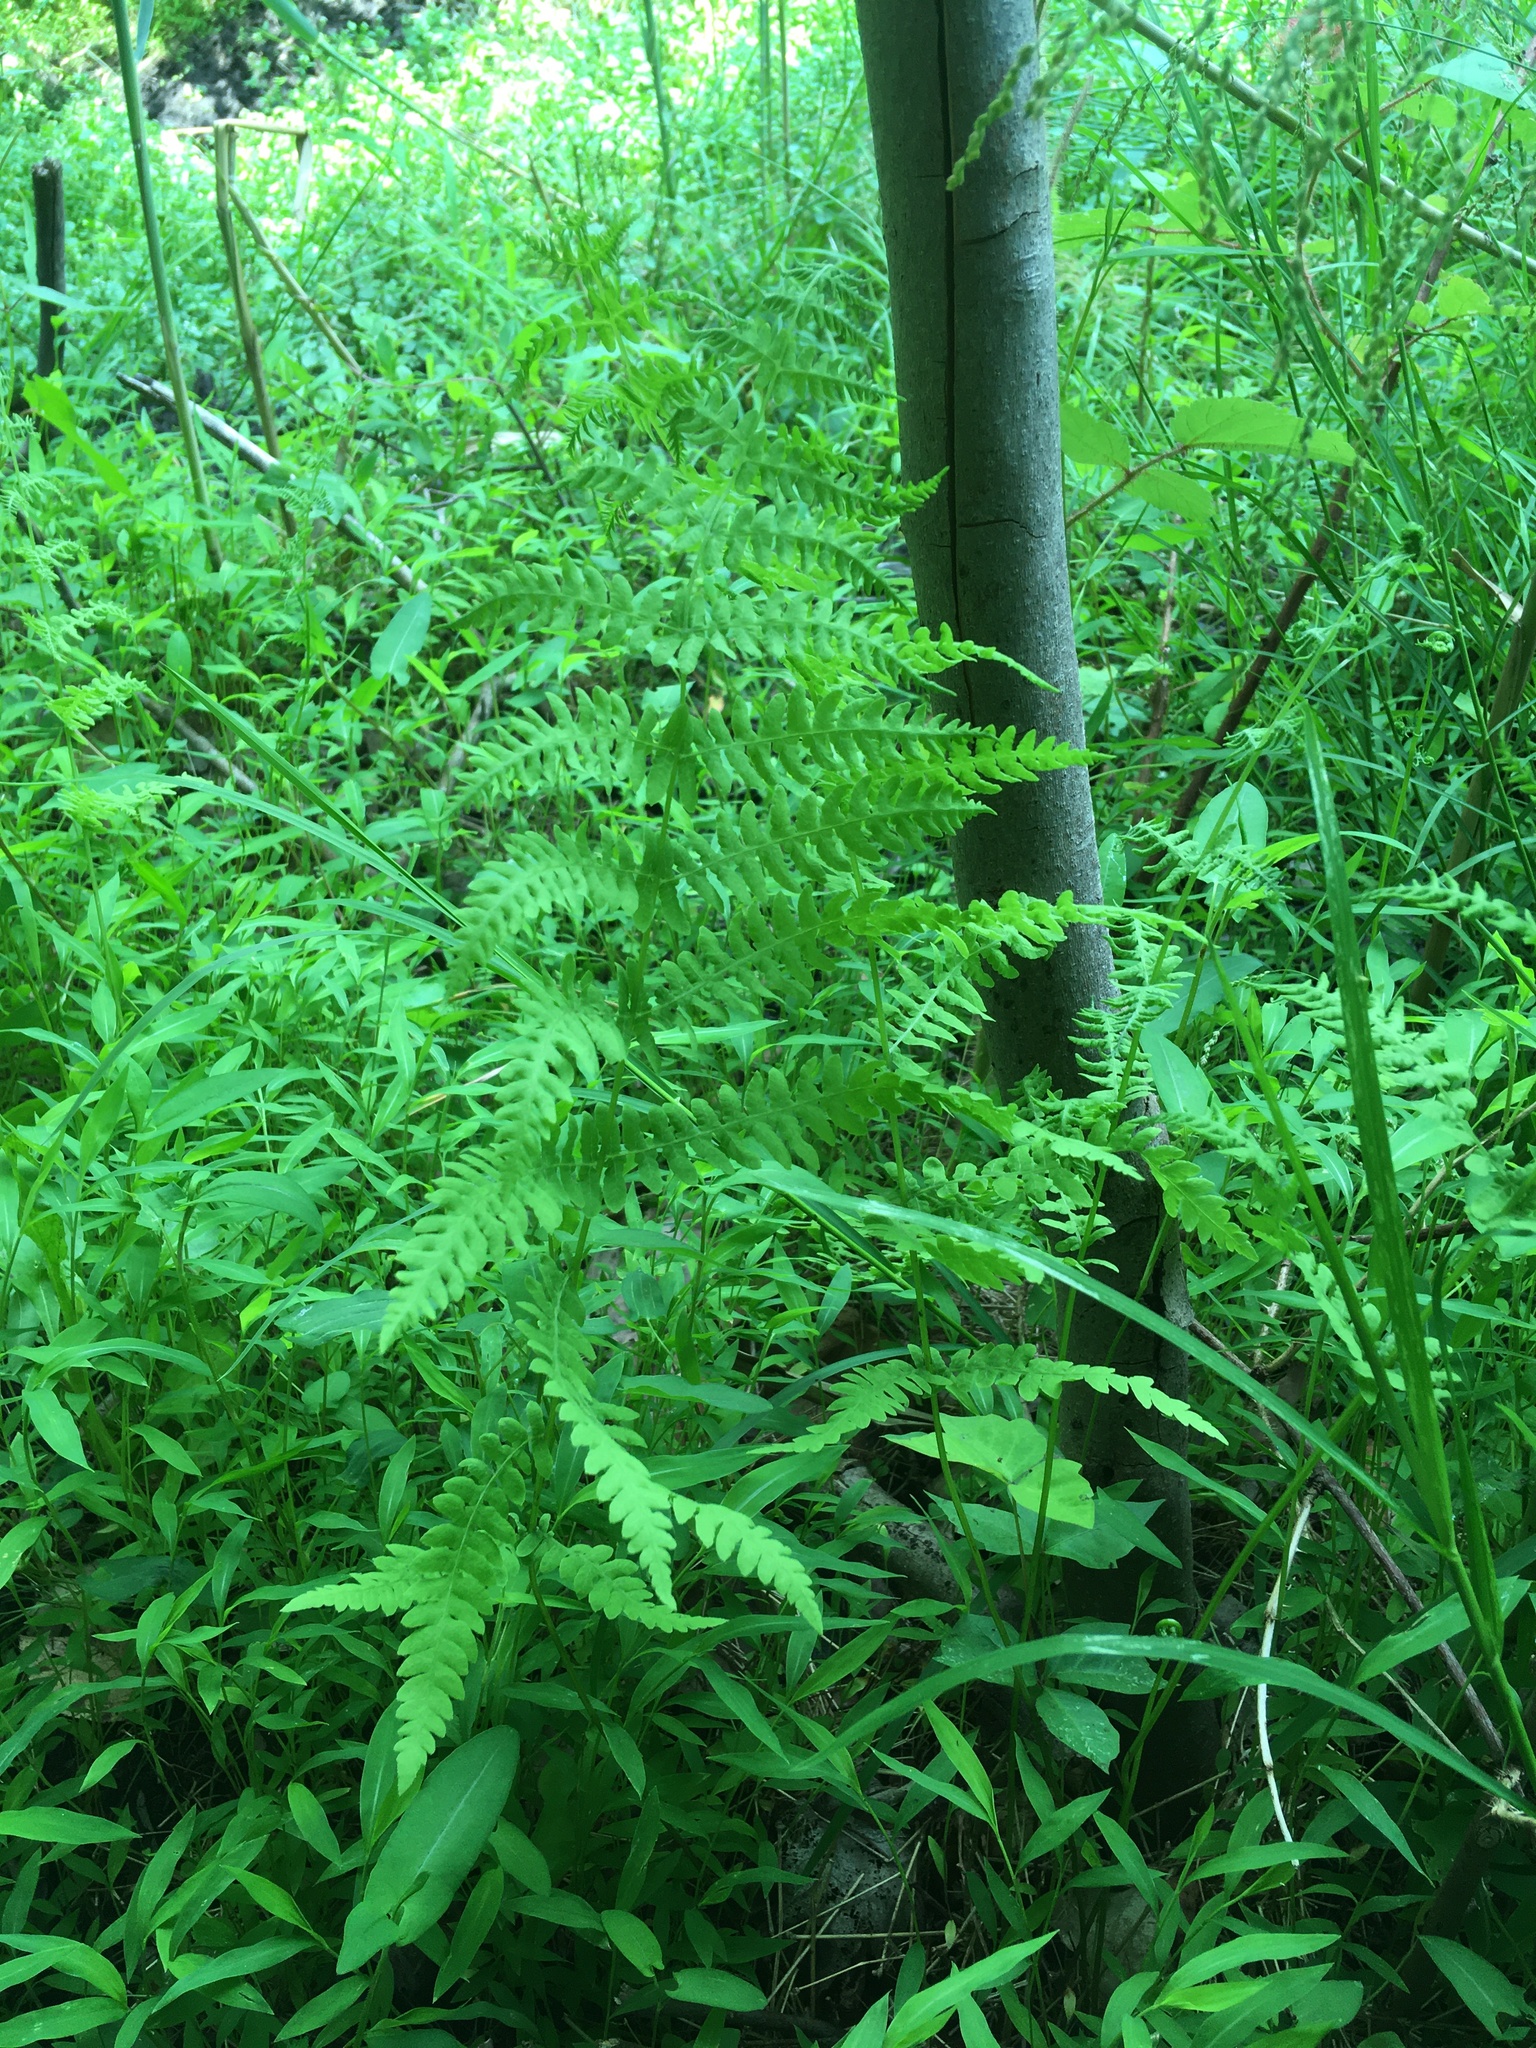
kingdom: Plantae
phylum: Tracheophyta
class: Polypodiopsida
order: Polypodiales
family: Thelypteridaceae
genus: Thelypteris
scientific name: Thelypteris palustris
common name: Marsh fern
